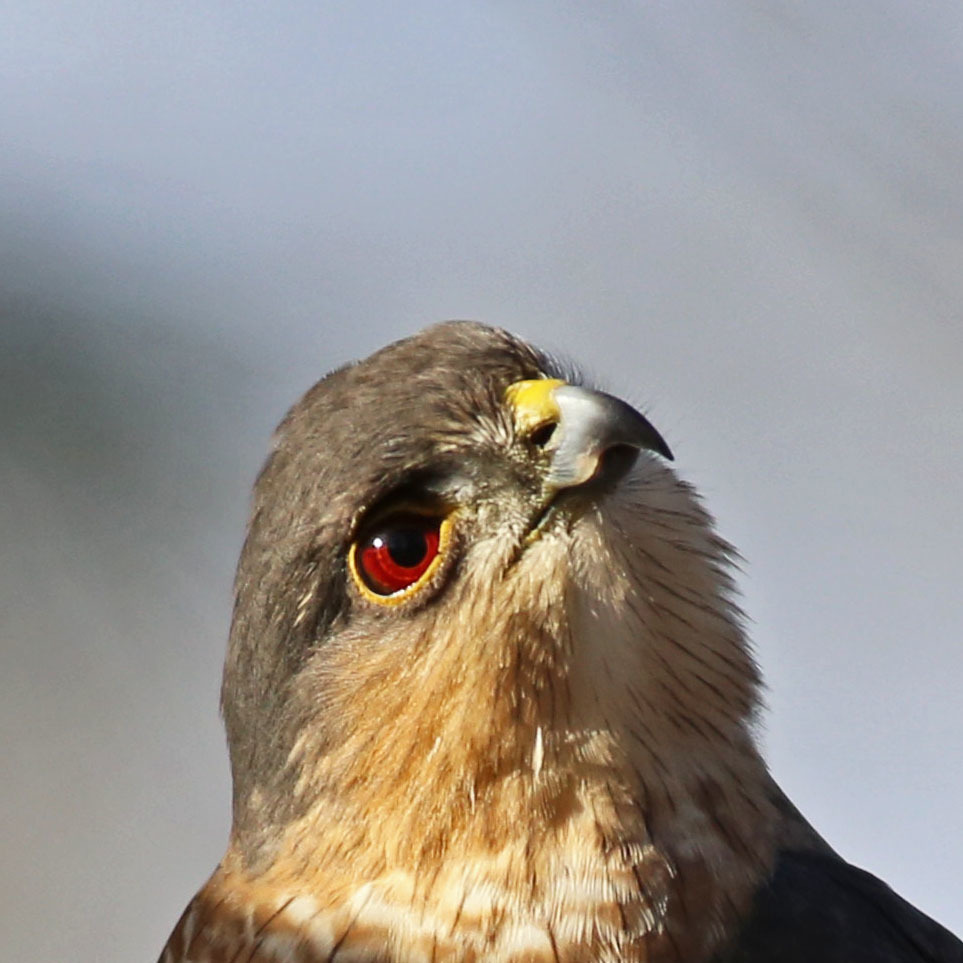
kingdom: Animalia
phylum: Chordata
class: Aves
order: Accipitriformes
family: Accipitridae
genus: Accipiter
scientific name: Accipiter striatus
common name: Sharp-shinned hawk
